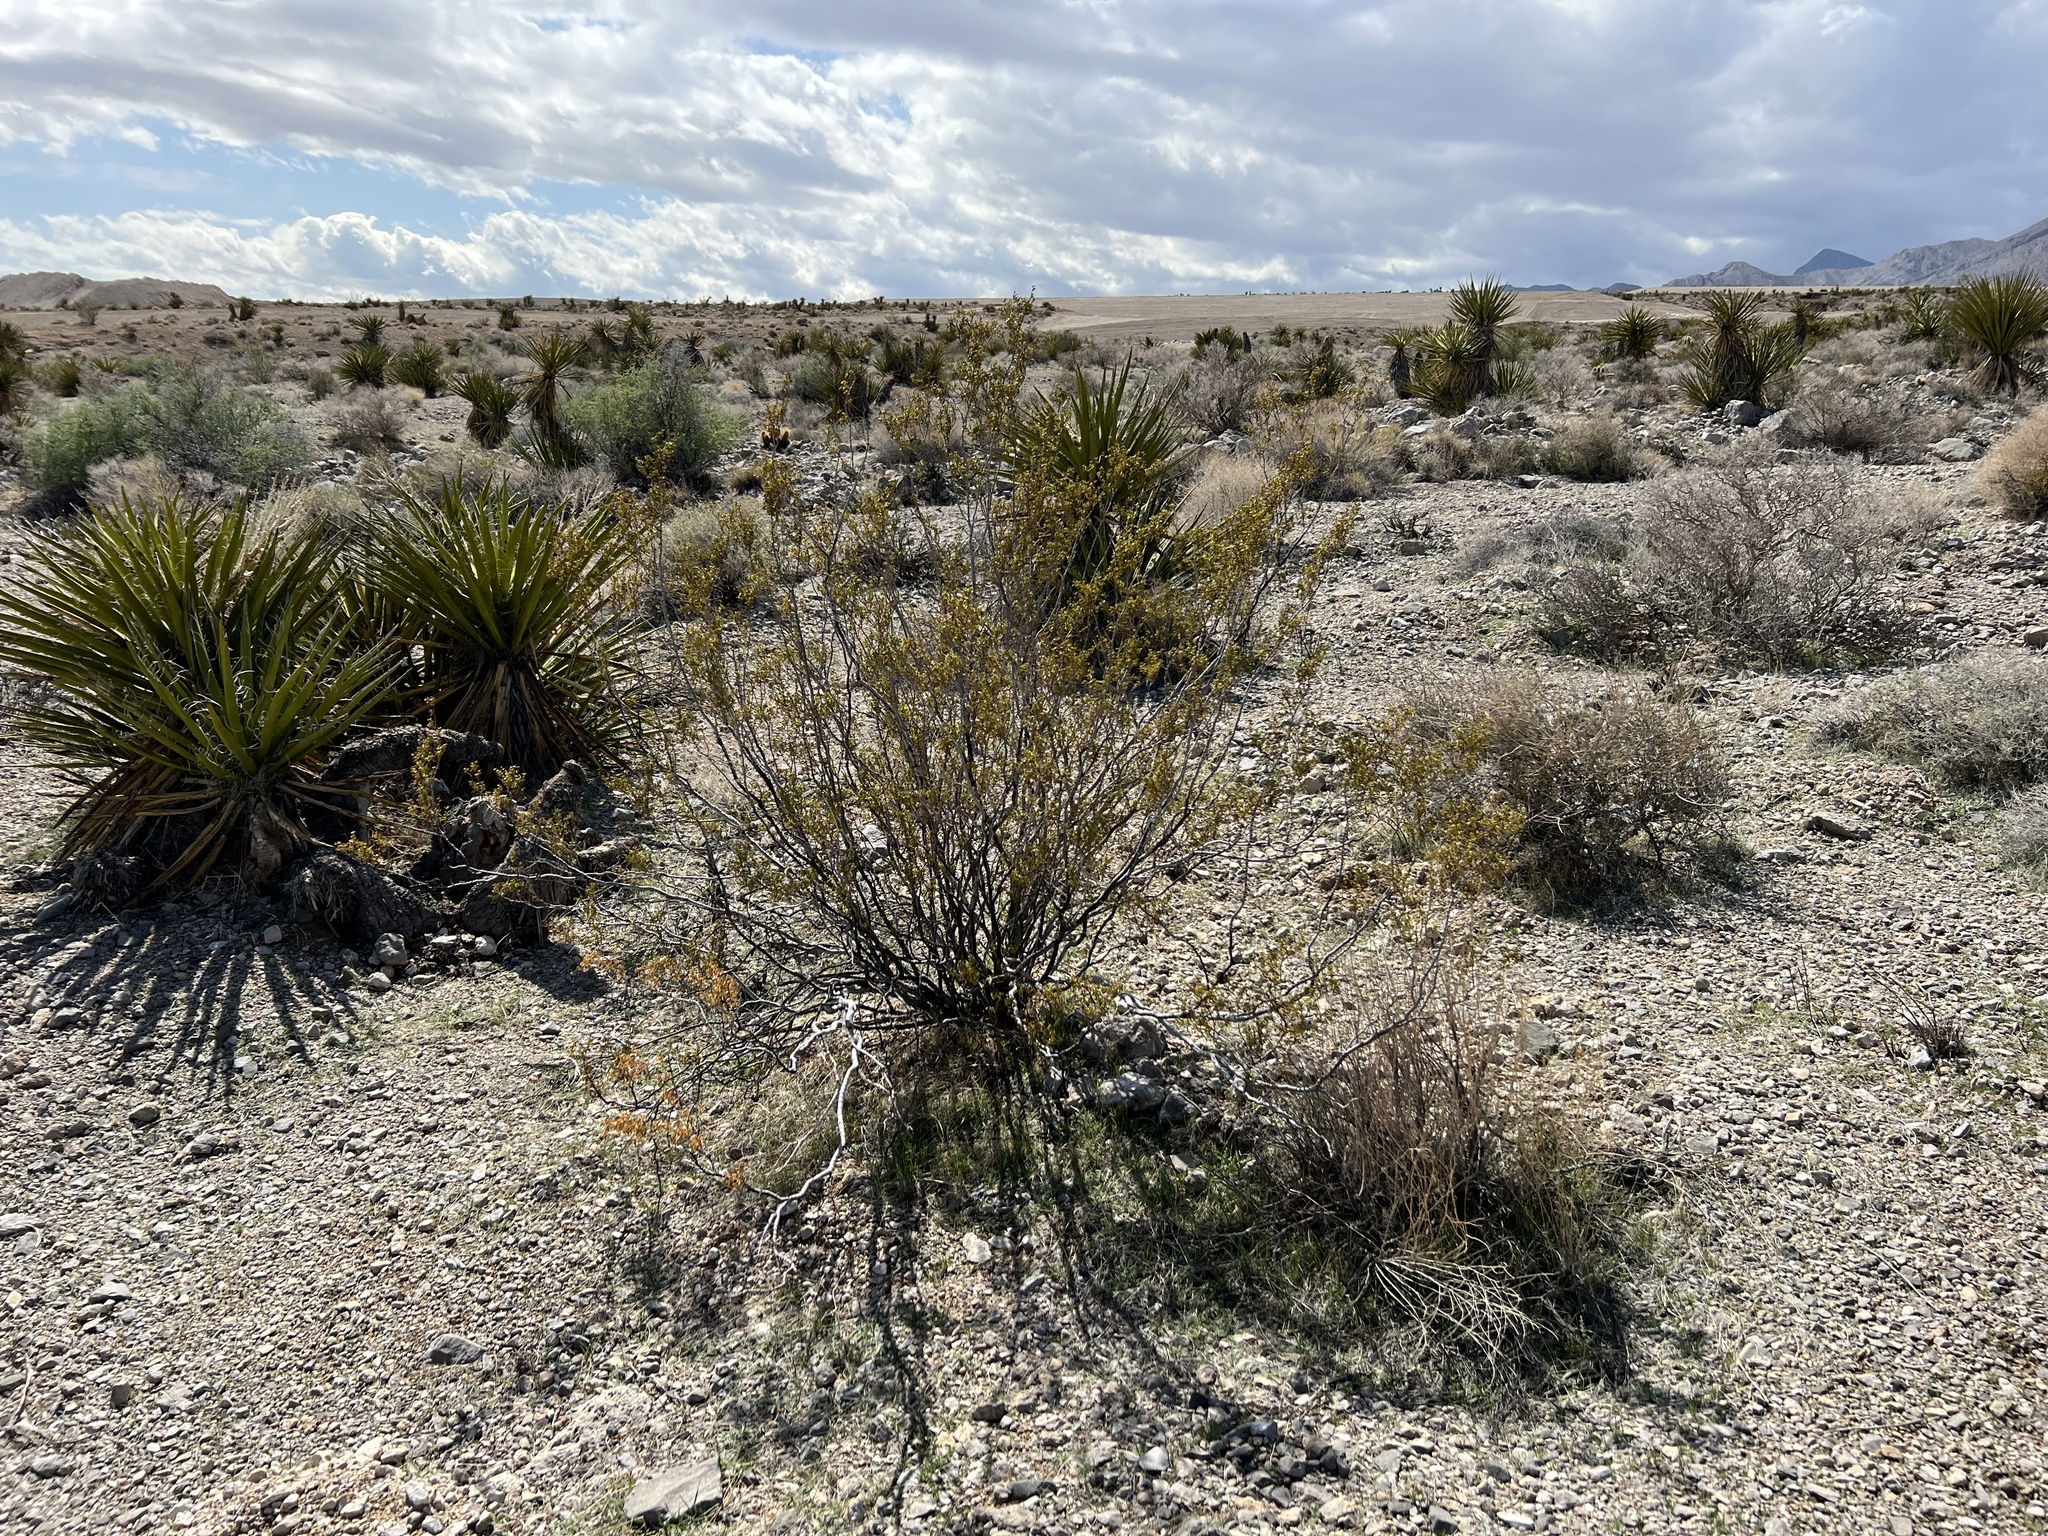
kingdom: Plantae
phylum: Tracheophyta
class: Magnoliopsida
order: Zygophyllales
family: Zygophyllaceae
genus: Larrea
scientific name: Larrea tridentata
